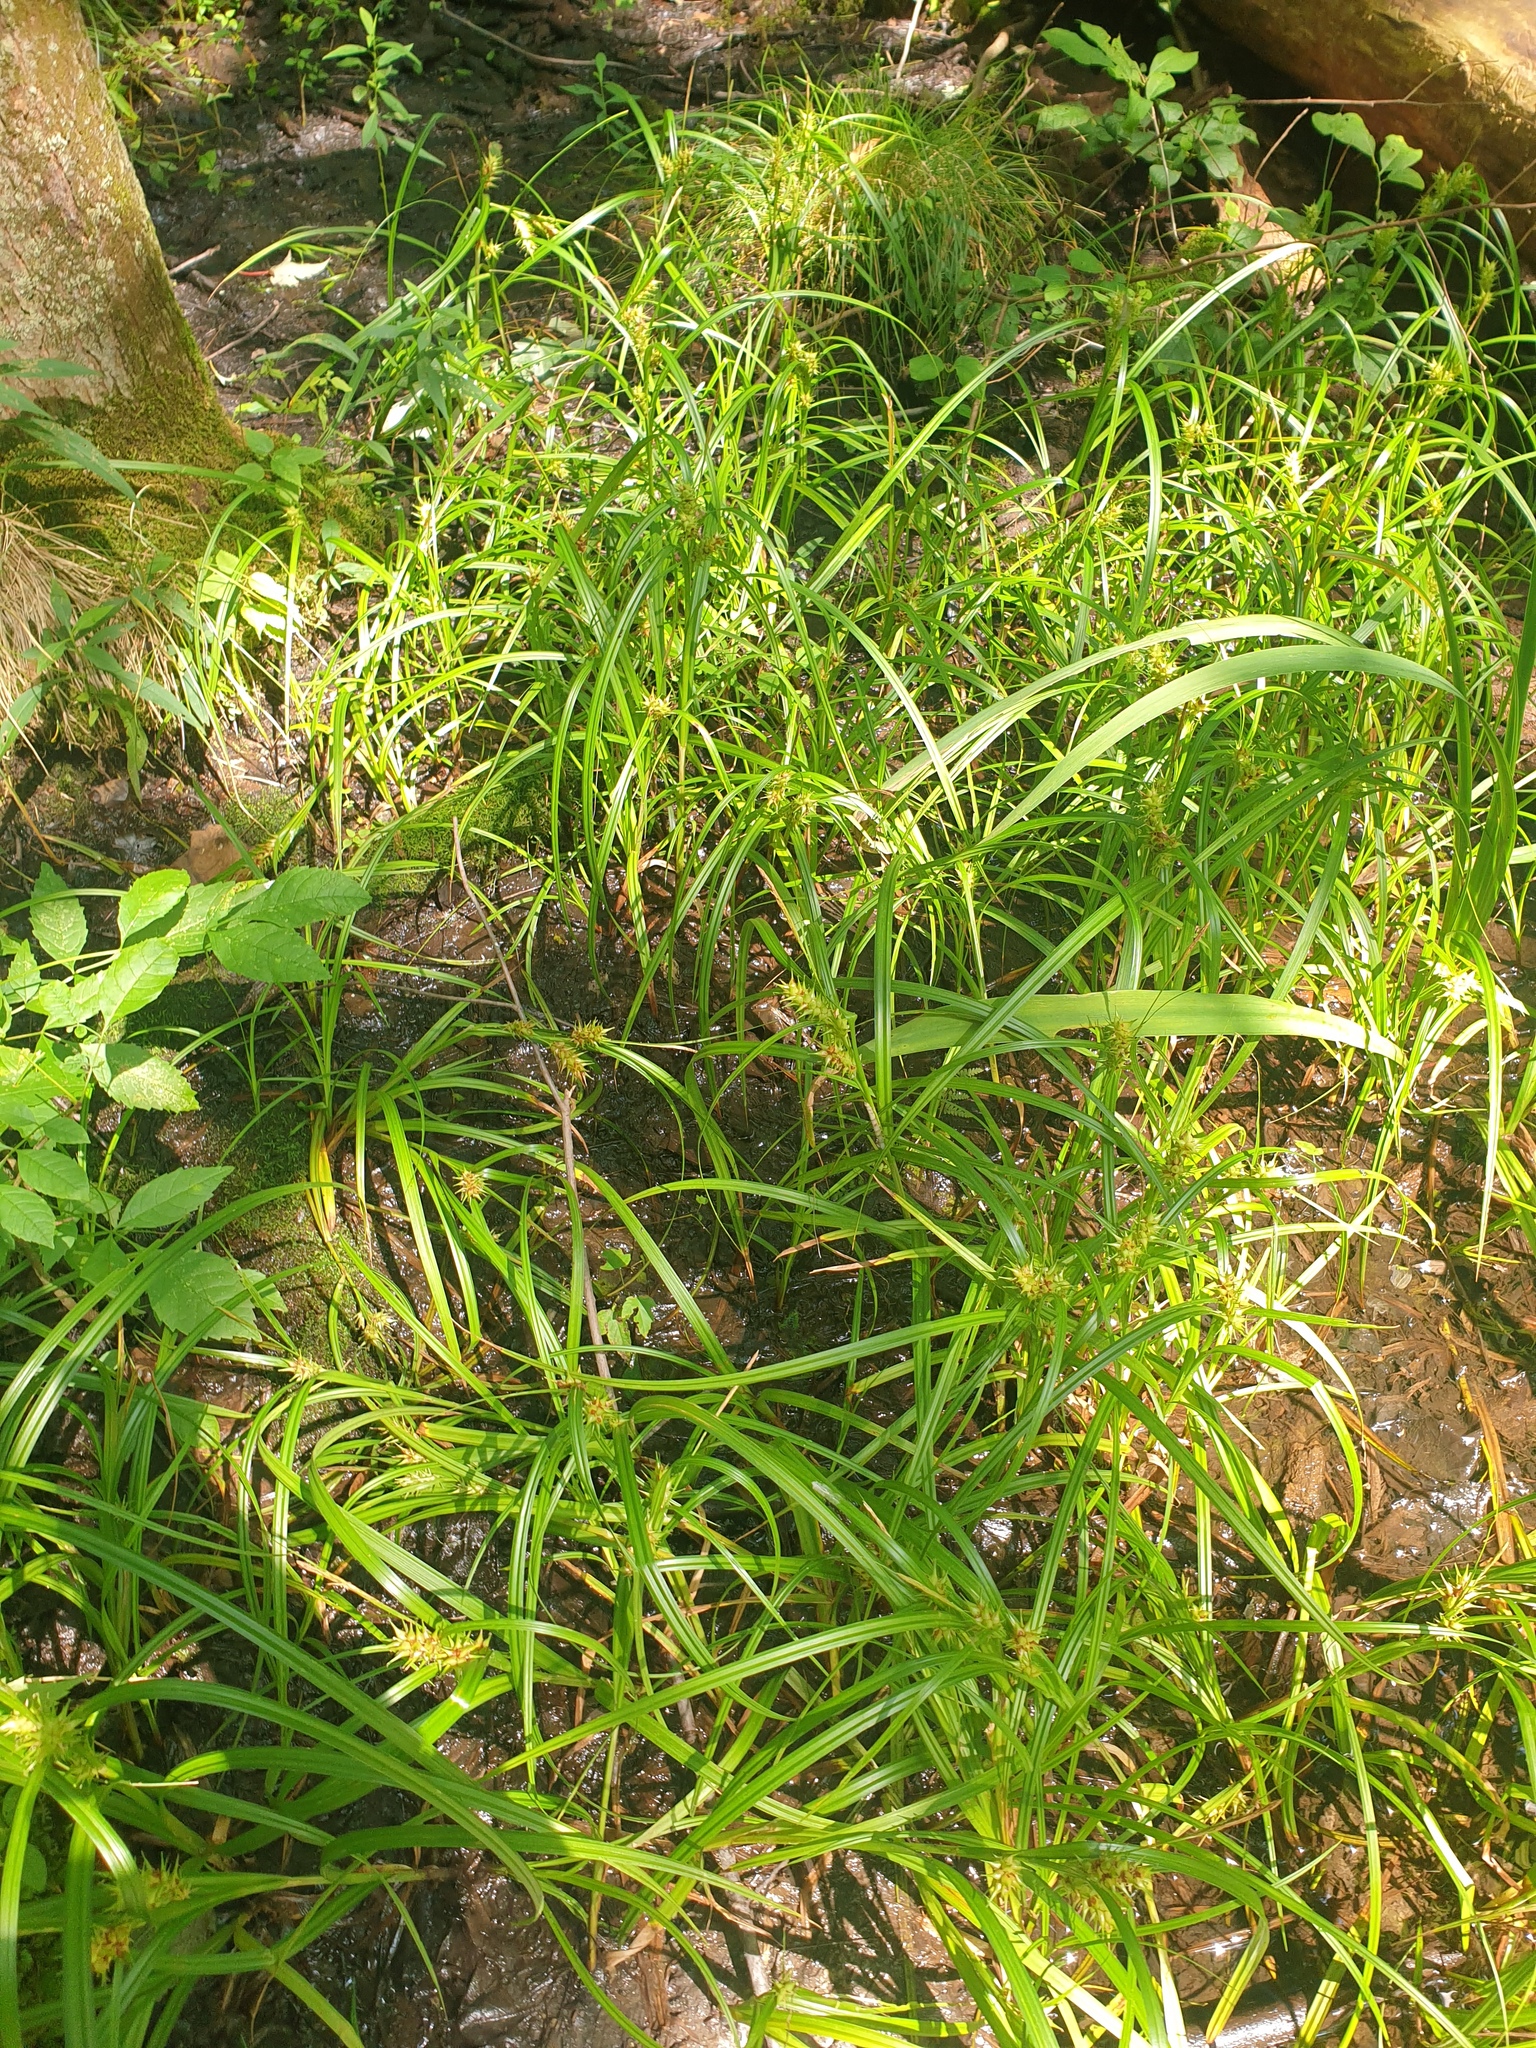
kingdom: Plantae
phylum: Tracheophyta
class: Liliopsida
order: Poales
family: Cyperaceae
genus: Carex
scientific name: Carex lupuliformis
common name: False hop sedge
